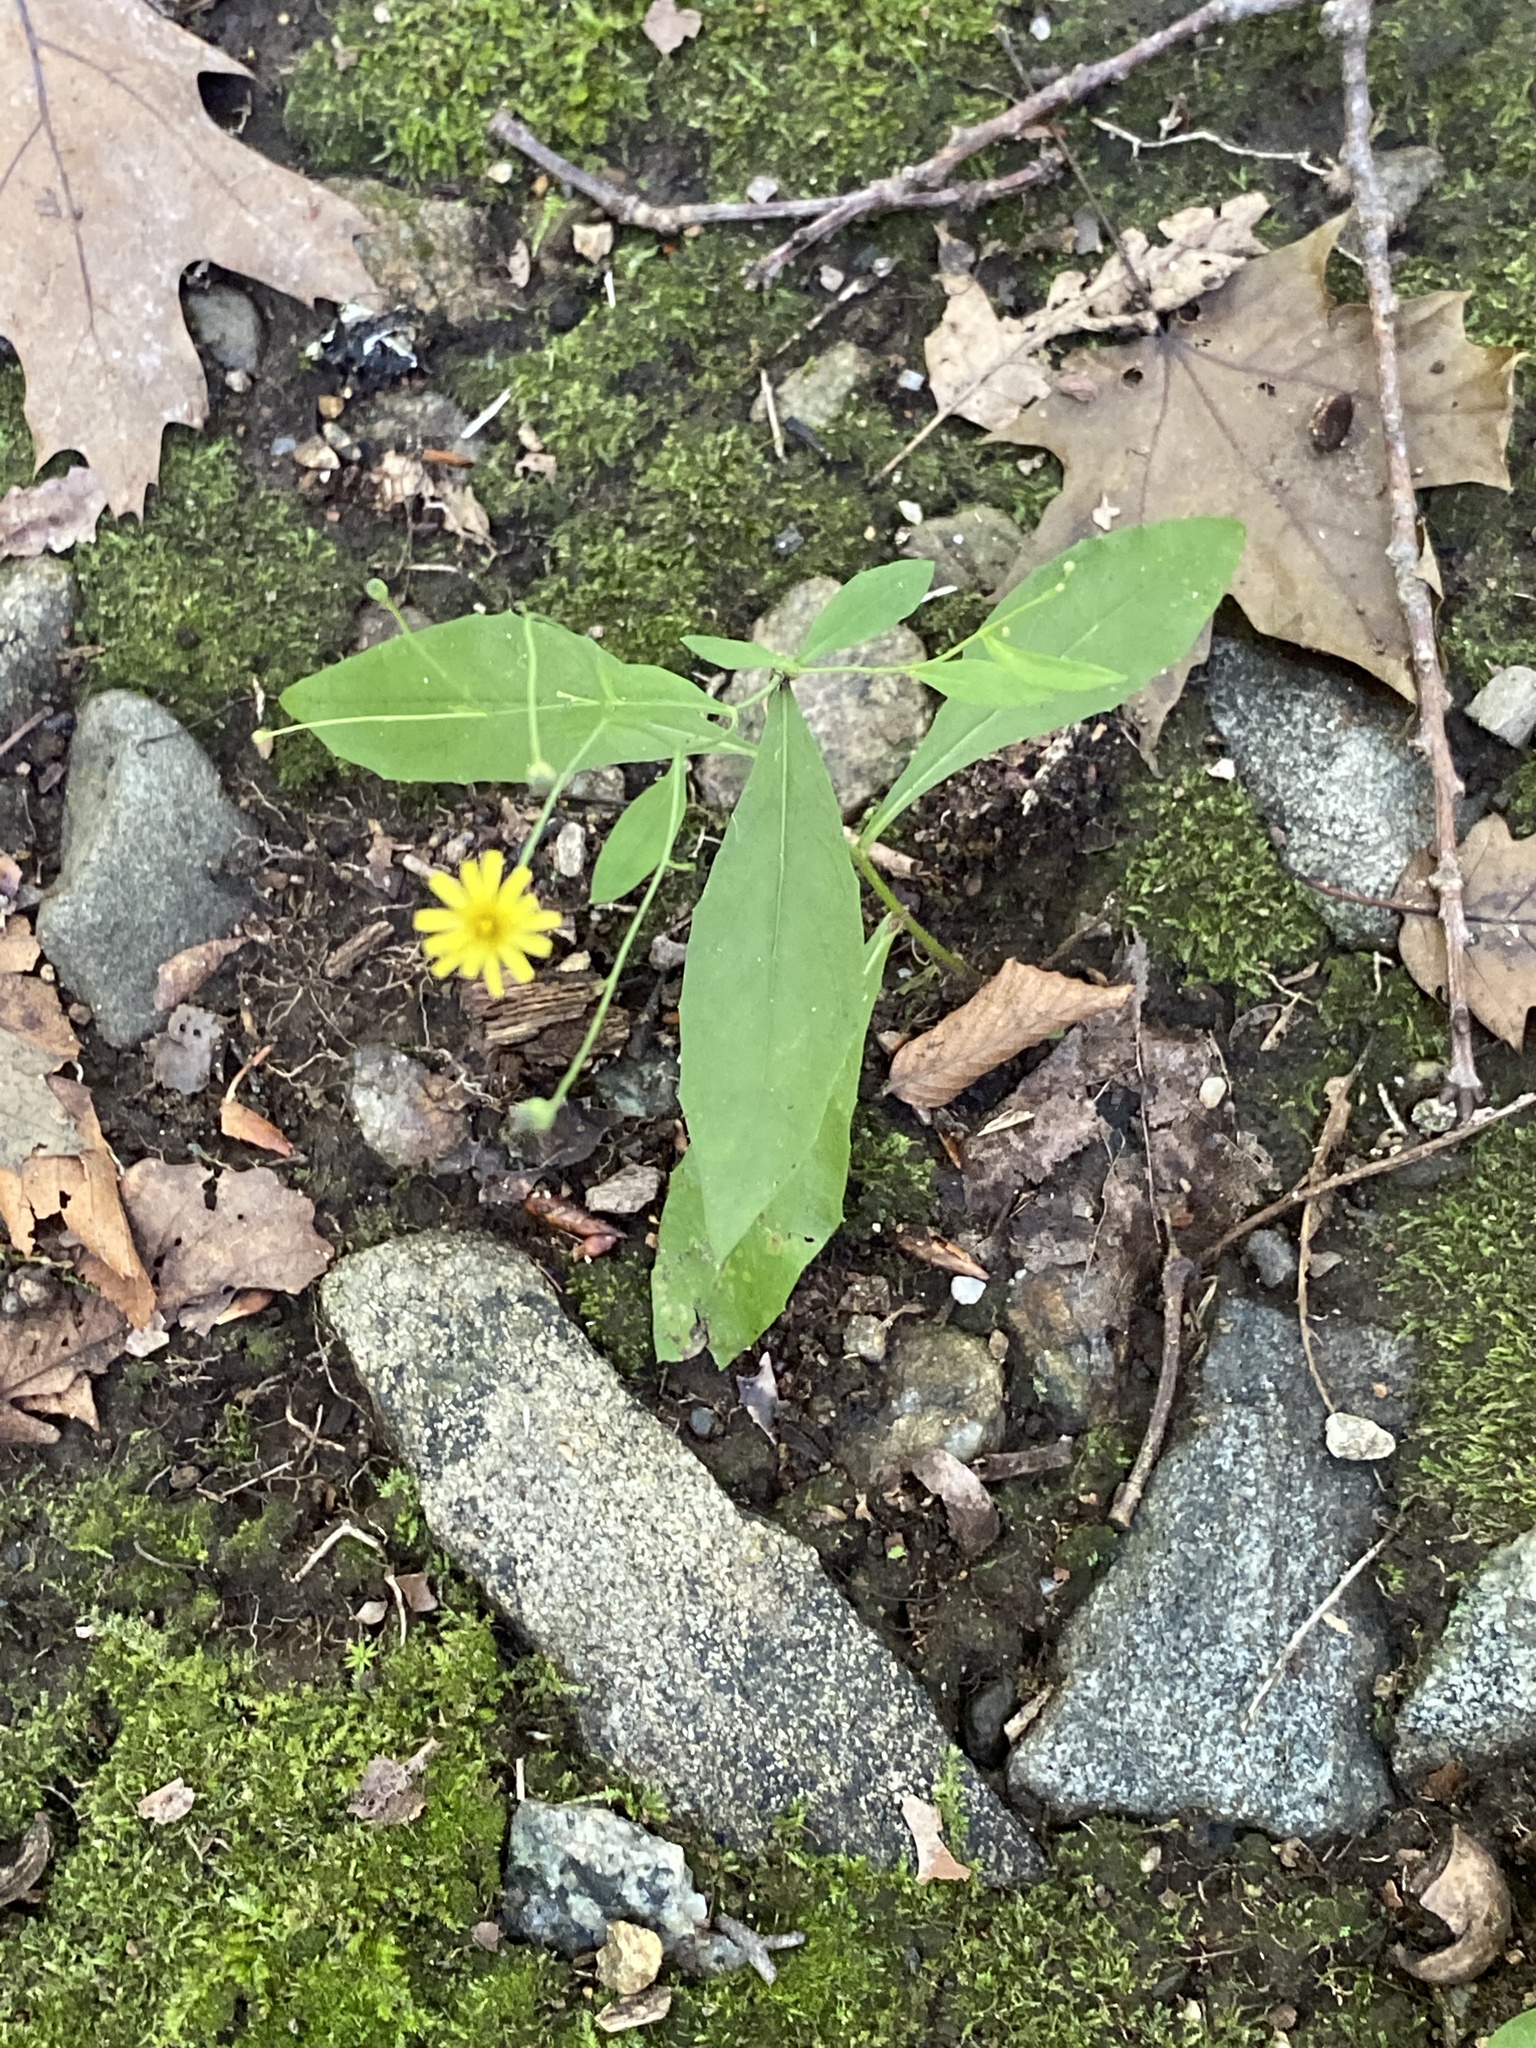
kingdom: Plantae
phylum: Tracheophyta
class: Magnoliopsida
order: Asterales
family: Asteraceae
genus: Hieracium
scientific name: Hieracium paniculatum
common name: Allegheny hawkweed
